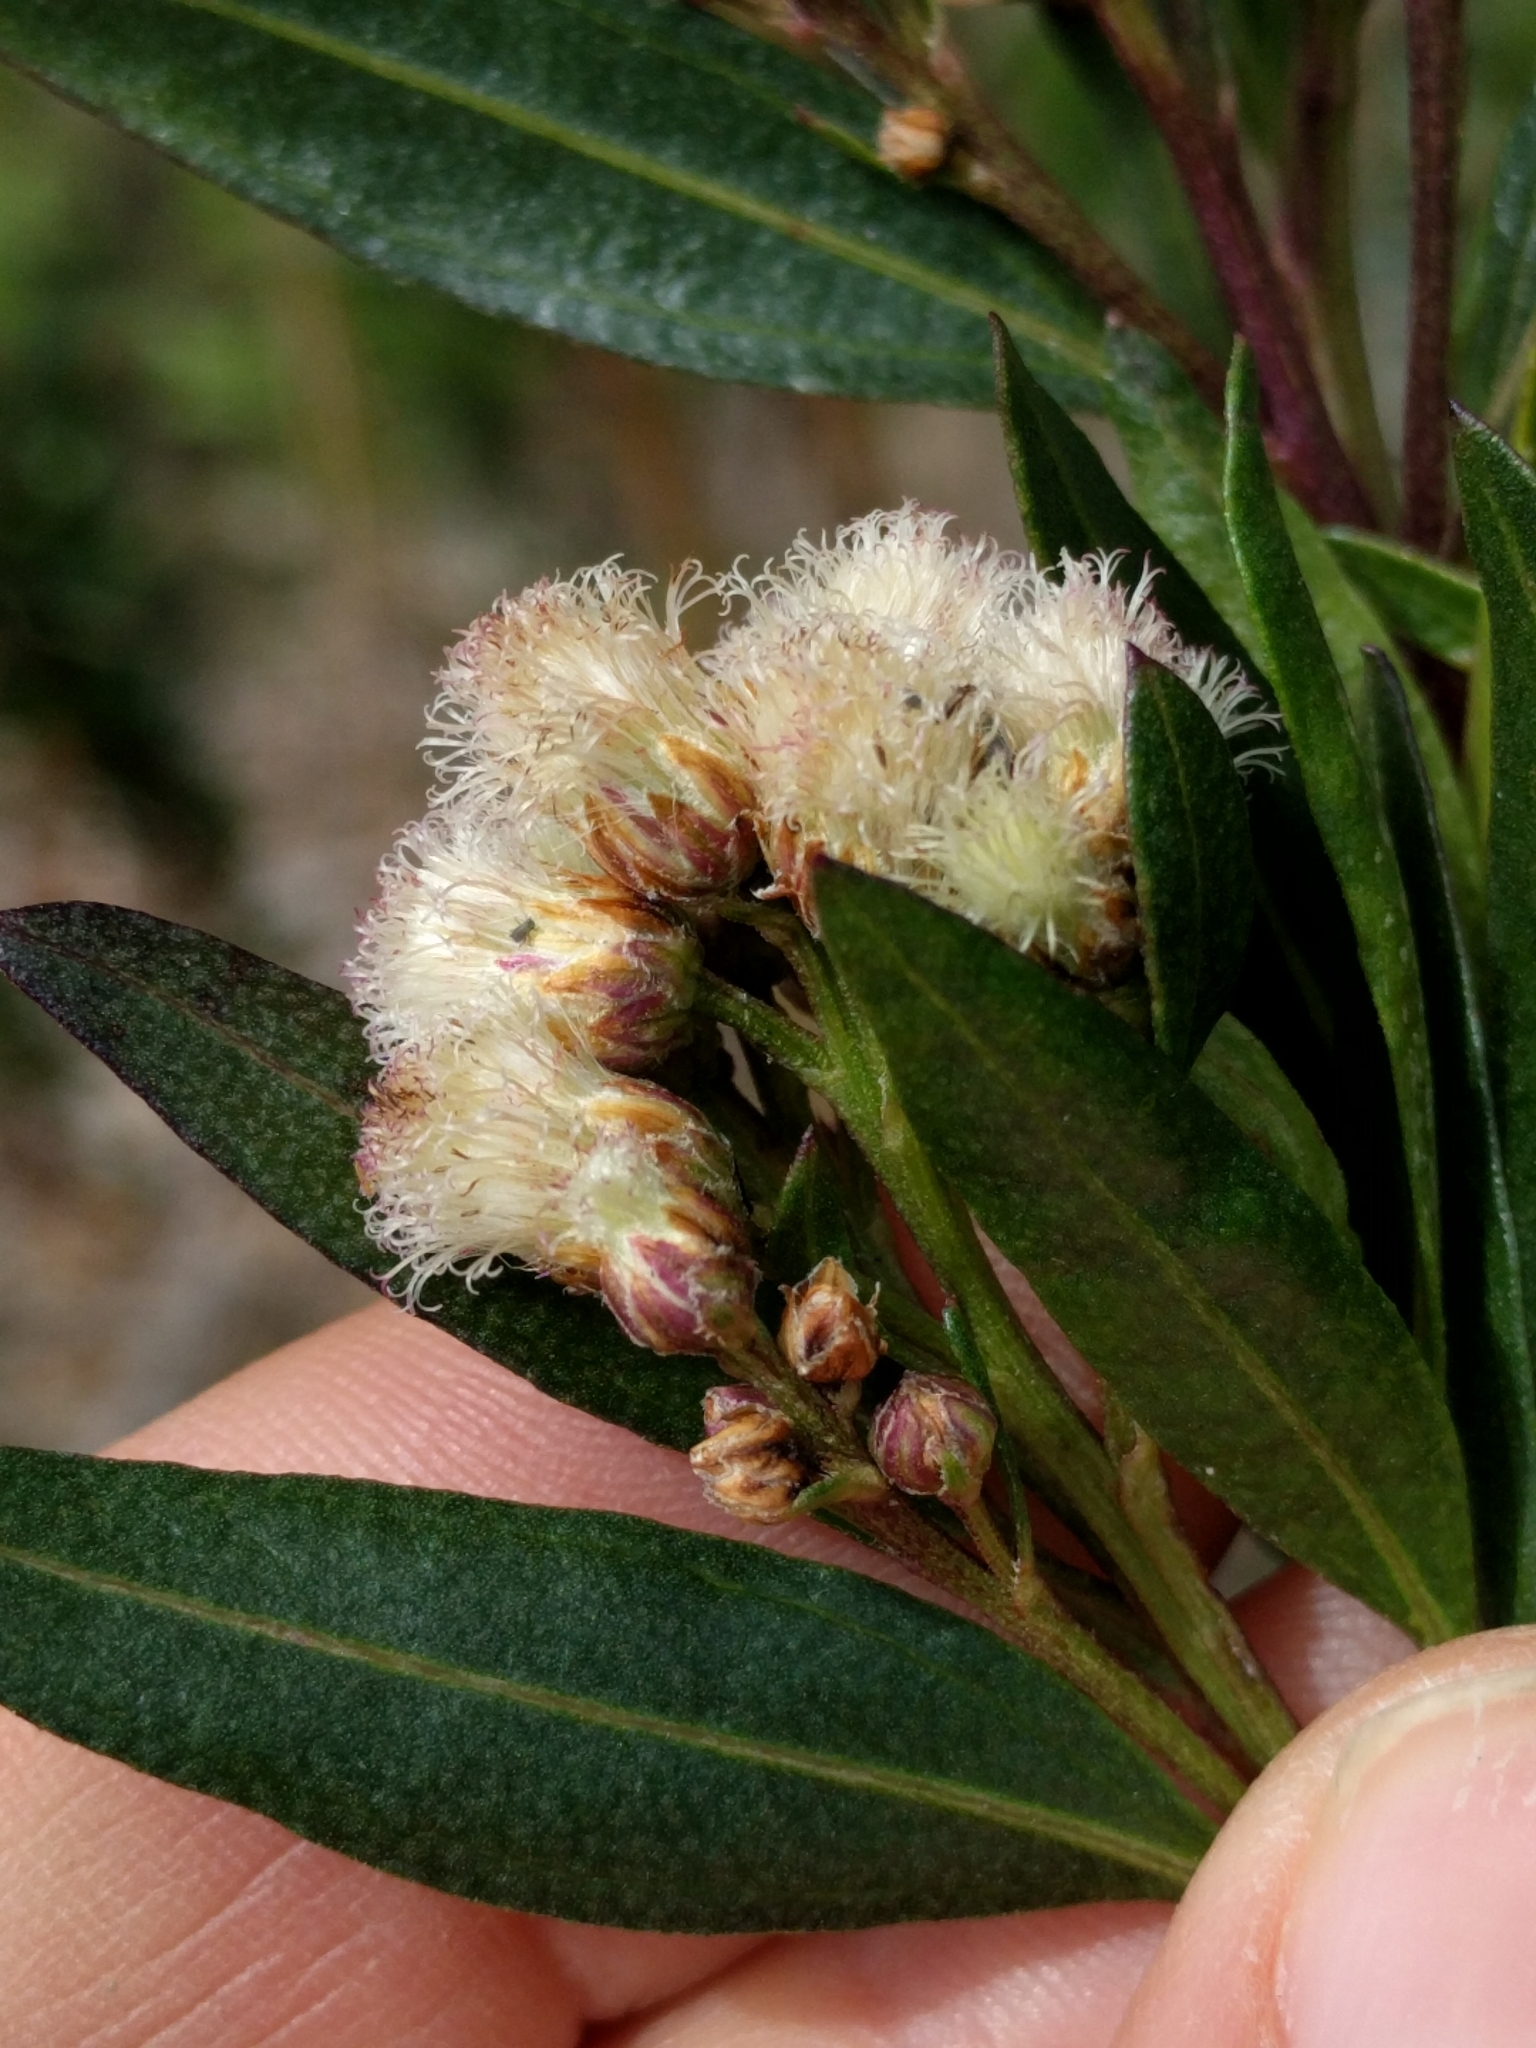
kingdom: Plantae
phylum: Tracheophyta
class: Magnoliopsida
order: Asterales
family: Asteraceae
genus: Baccharis
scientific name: Baccharis salicifolia
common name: Sticky baccharis
